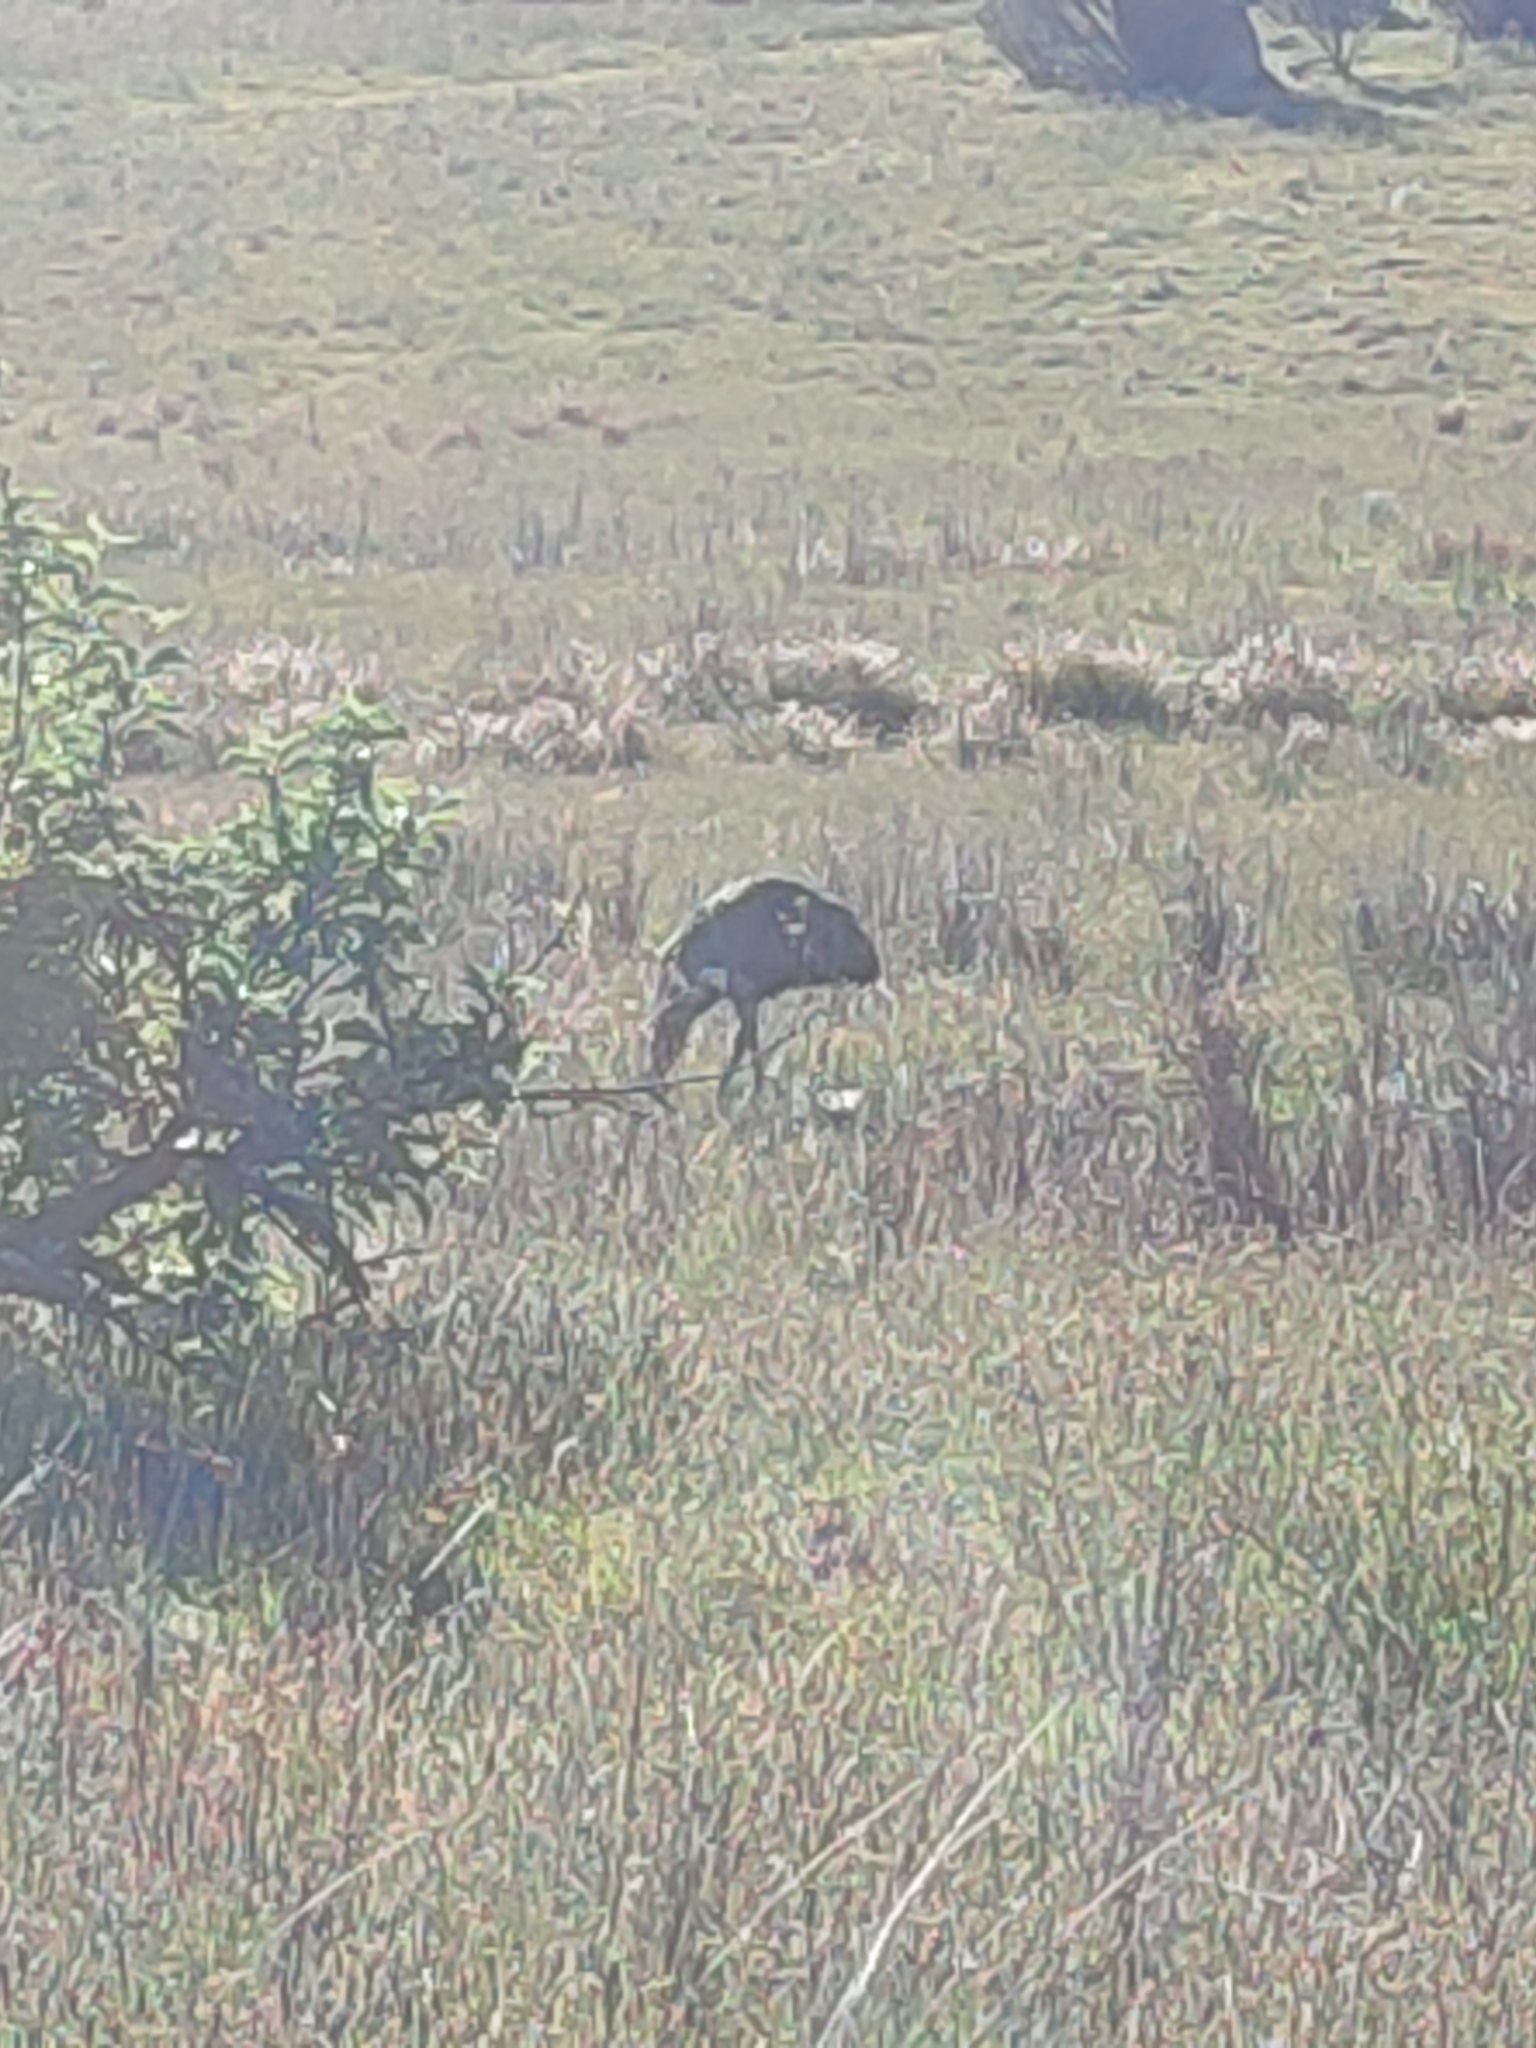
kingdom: Animalia
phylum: Chordata
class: Aves
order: Casuariiformes
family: Dromaiidae
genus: Dromaius
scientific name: Dromaius novaehollandiae
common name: Emu
